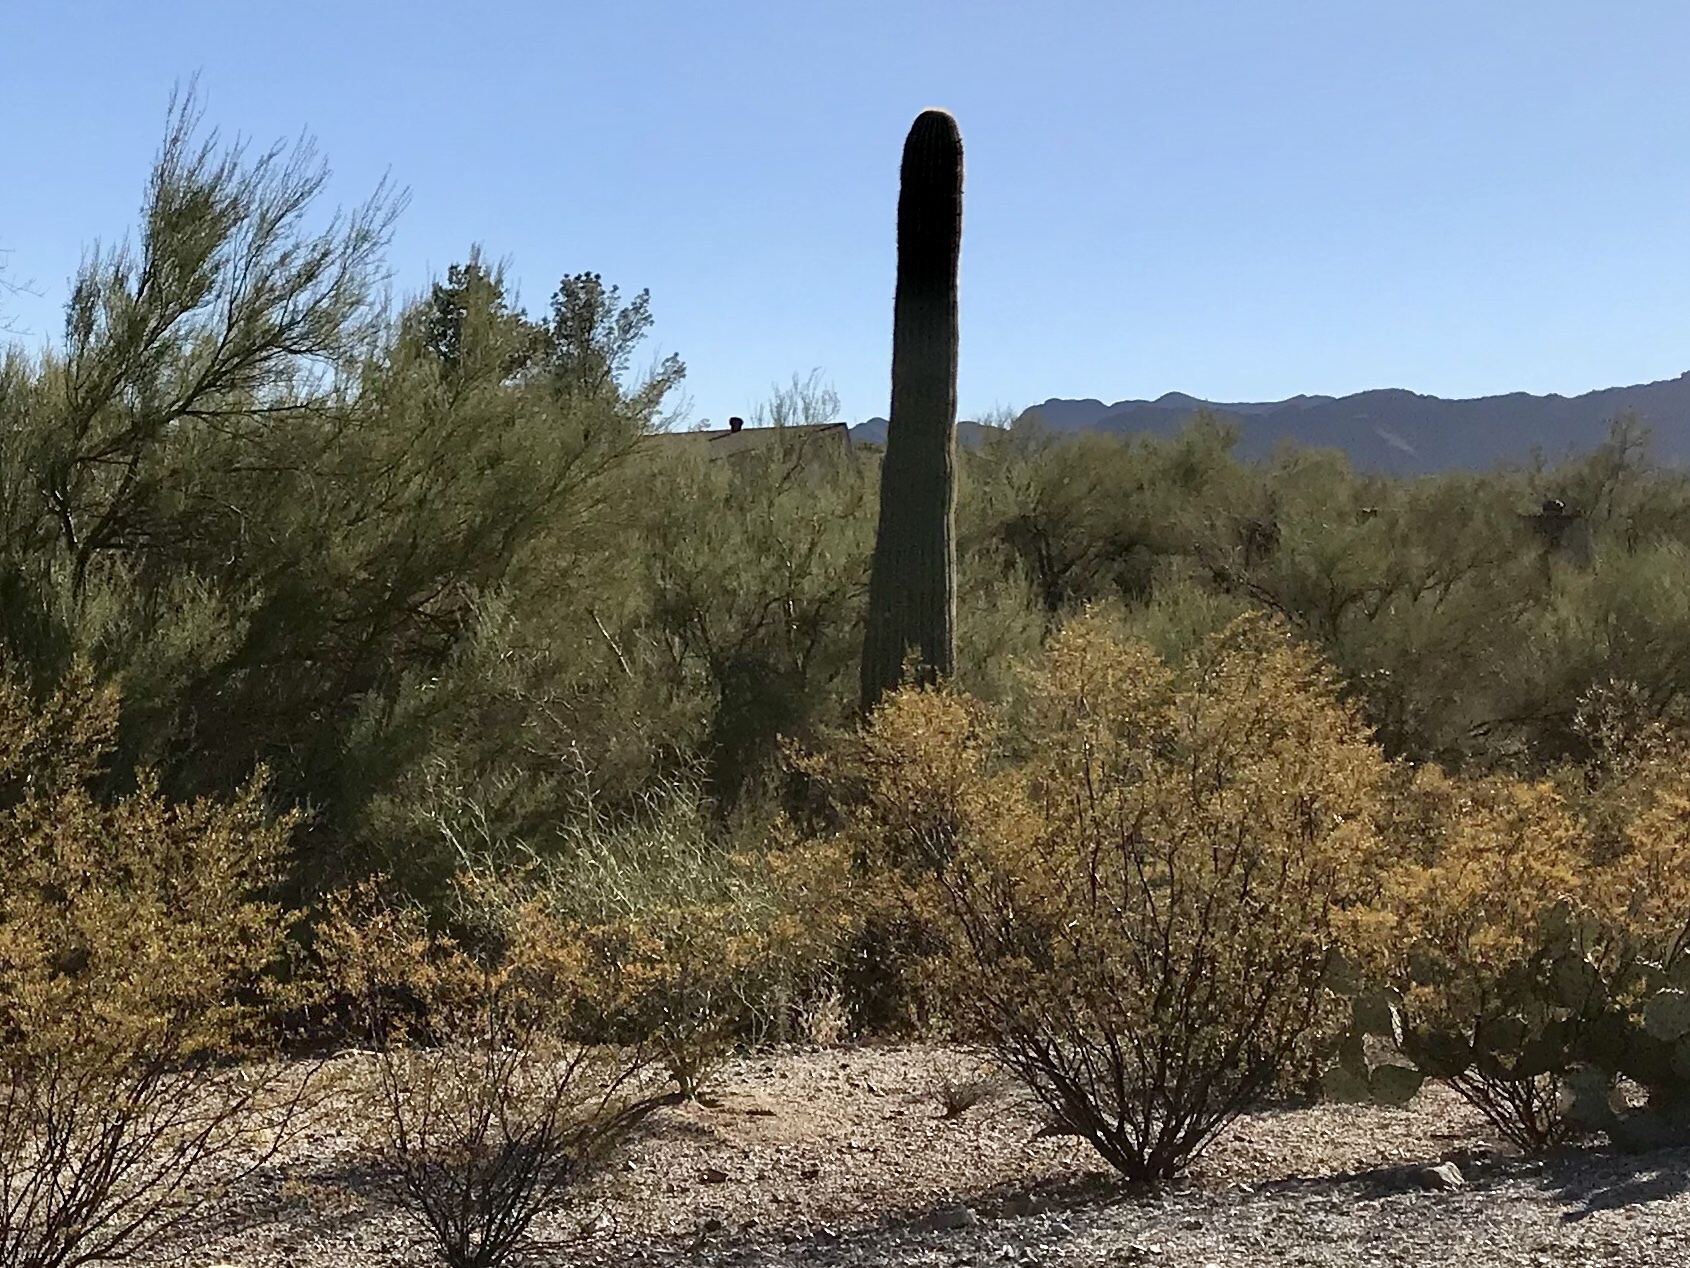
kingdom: Plantae
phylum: Tracheophyta
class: Magnoliopsida
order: Caryophyllales
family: Cactaceae
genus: Carnegiea
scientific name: Carnegiea gigantea
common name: Saguaro
